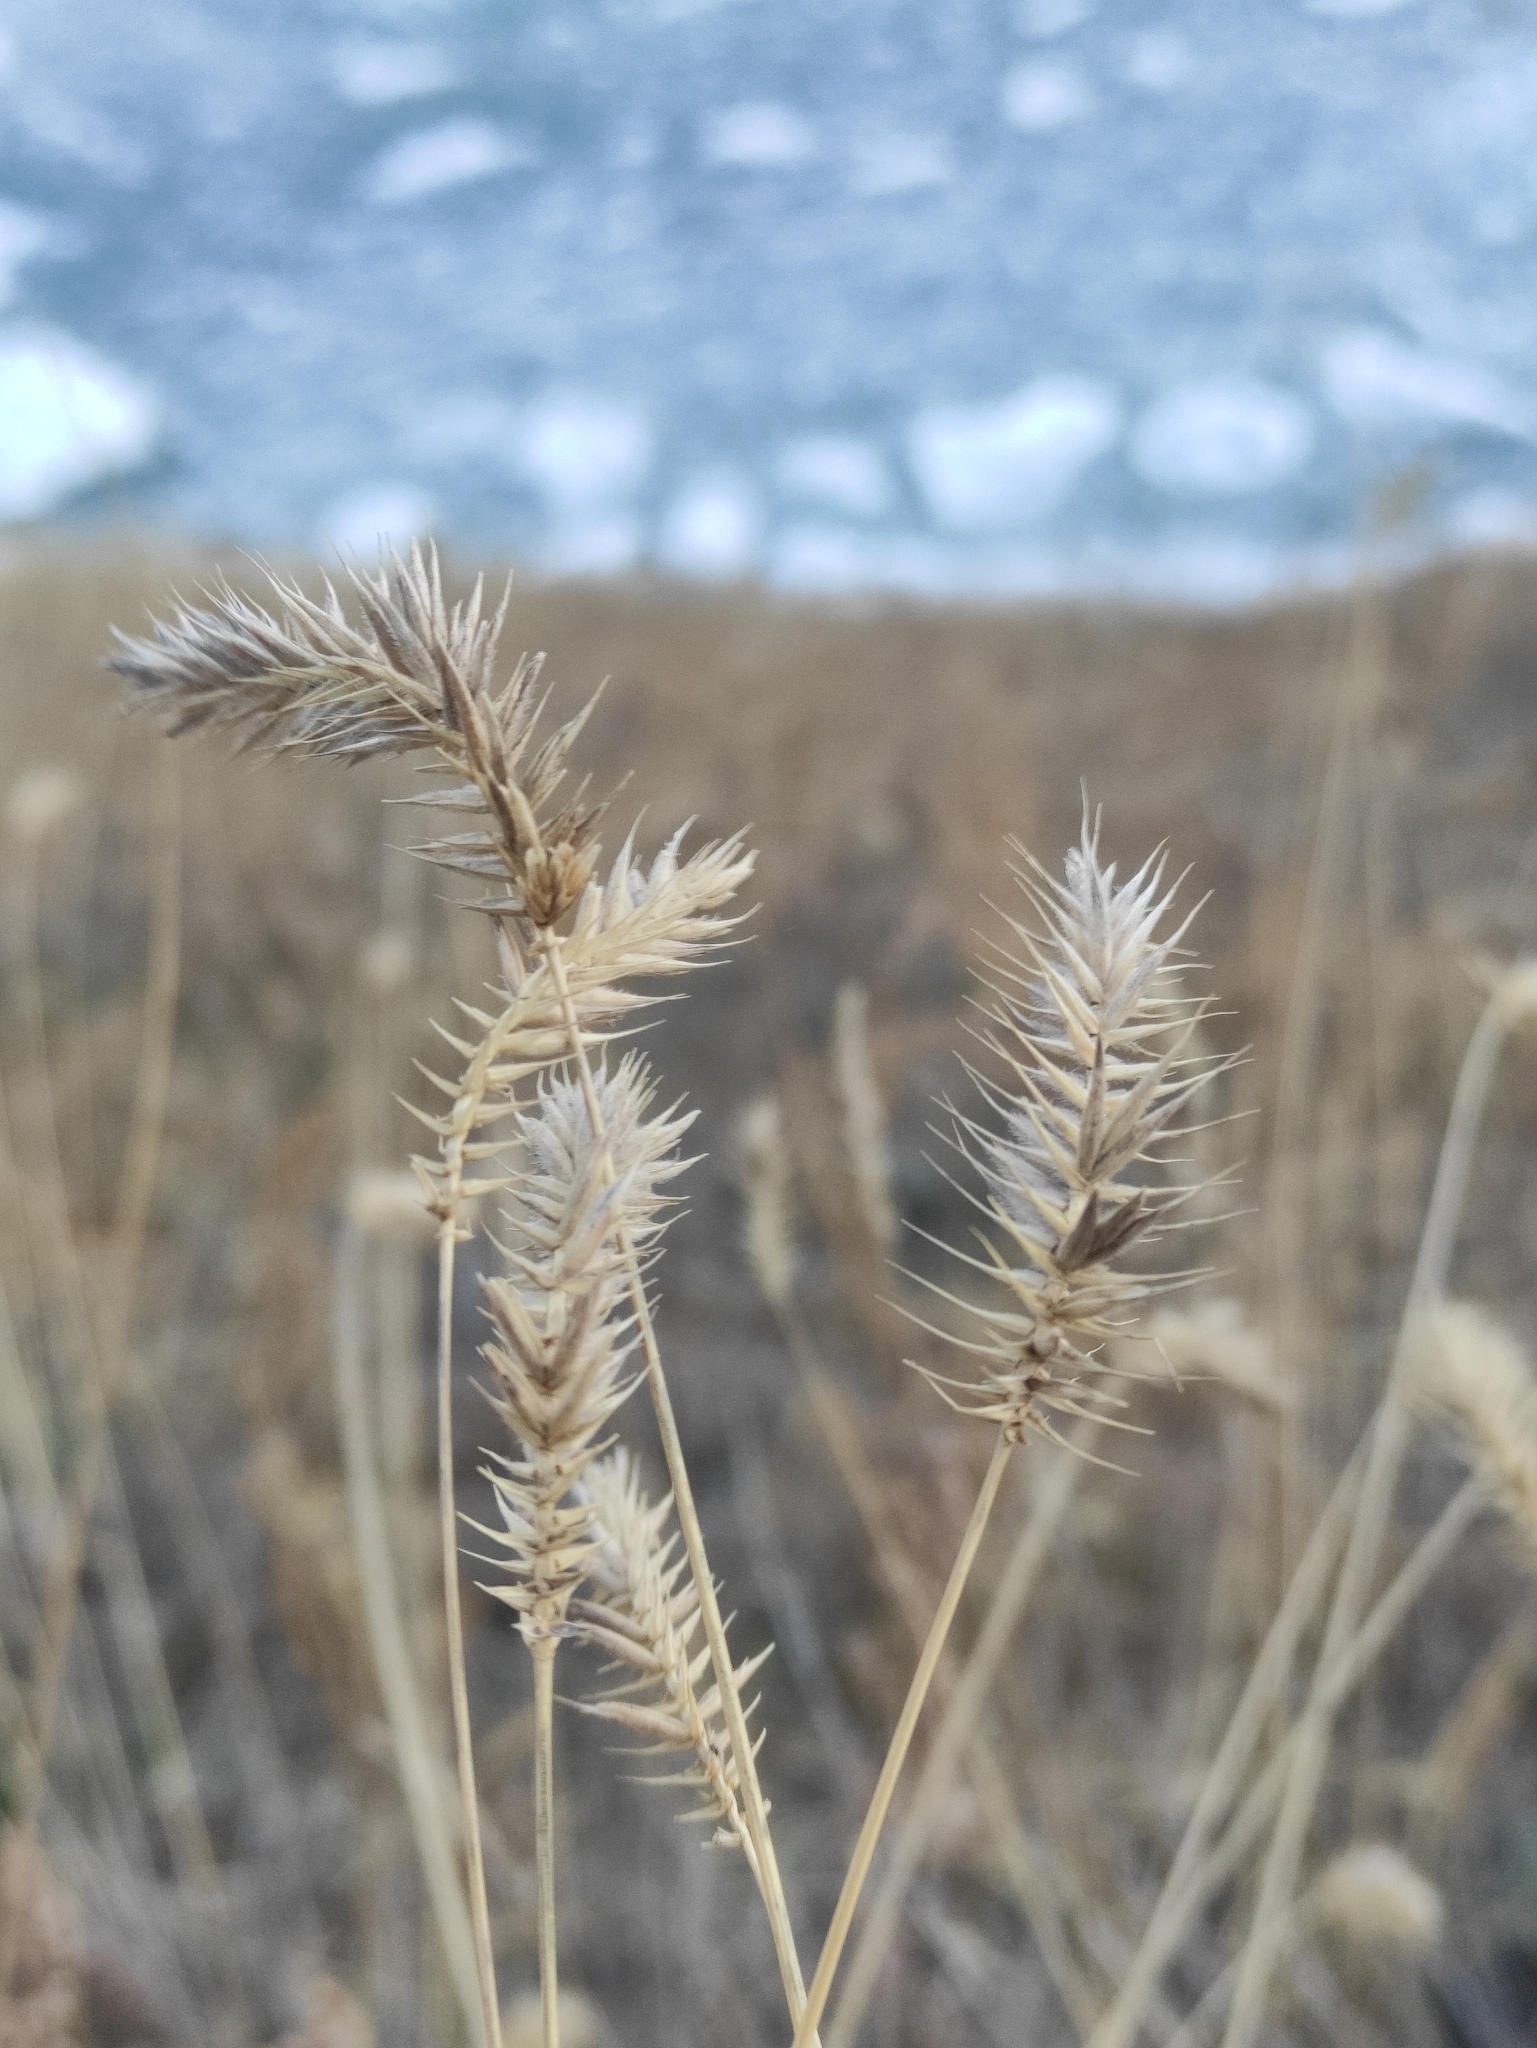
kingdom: Plantae
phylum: Tracheophyta
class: Liliopsida
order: Poales
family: Poaceae
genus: Agropyron
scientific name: Agropyron cristatum
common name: Crested wheatgrass
